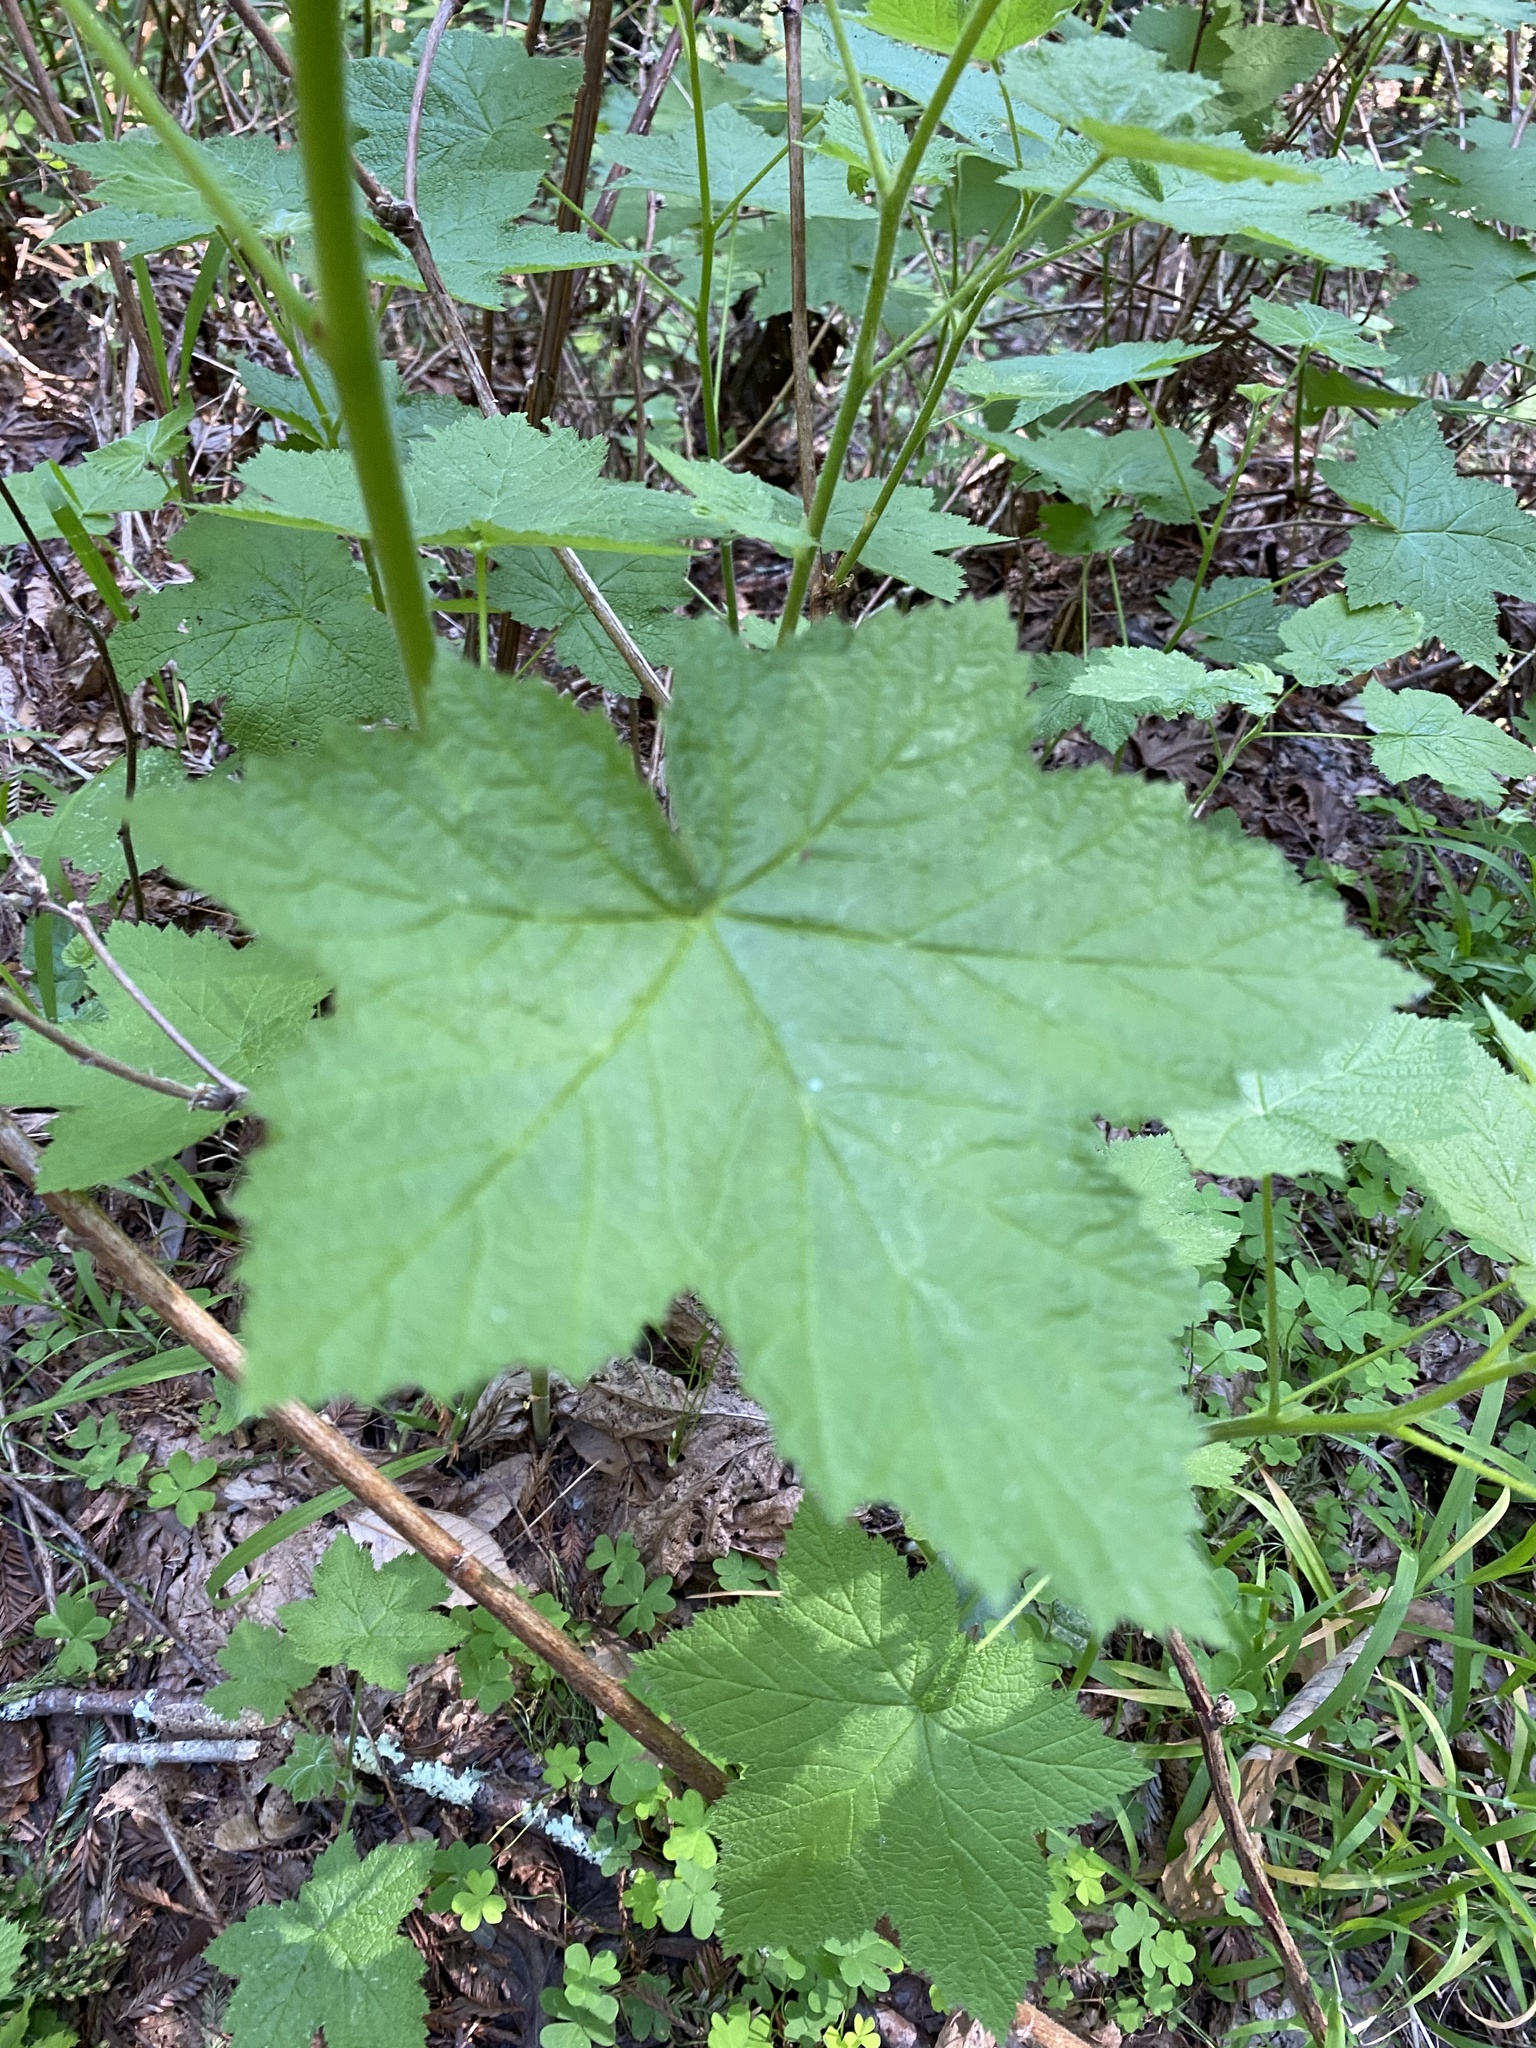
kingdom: Plantae
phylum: Tracheophyta
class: Magnoliopsida
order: Rosales
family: Rosaceae
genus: Rubus
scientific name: Rubus parviflorus
